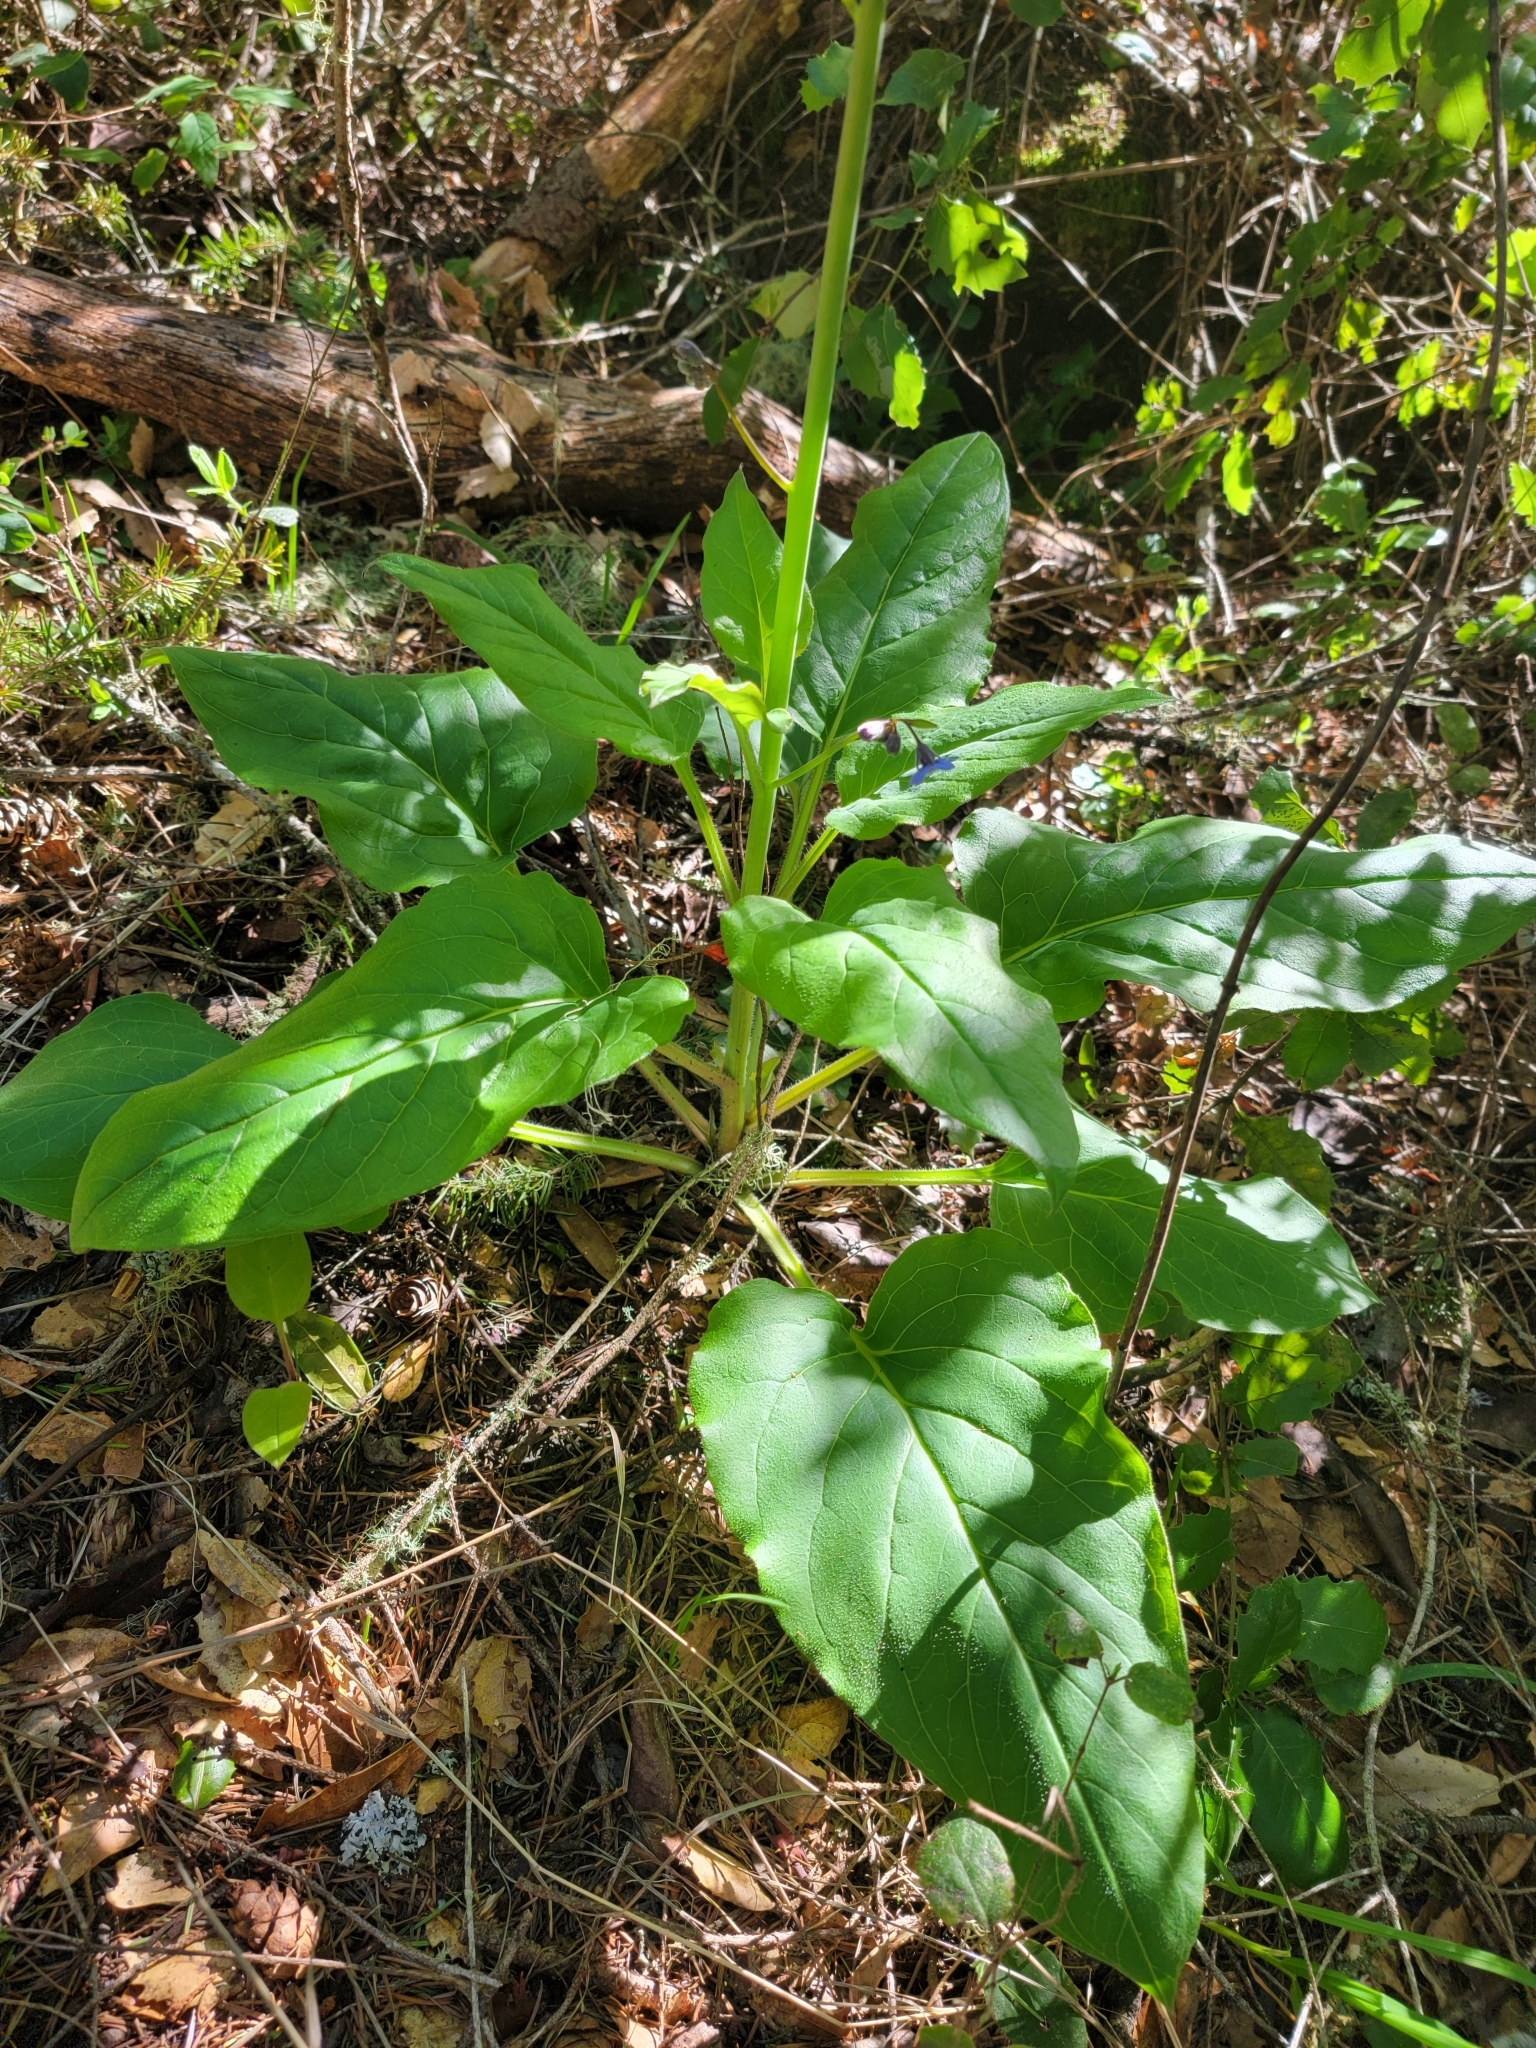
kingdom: Plantae
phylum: Tracheophyta
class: Magnoliopsida
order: Boraginales
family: Boraginaceae
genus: Adelinia
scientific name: Adelinia grande
